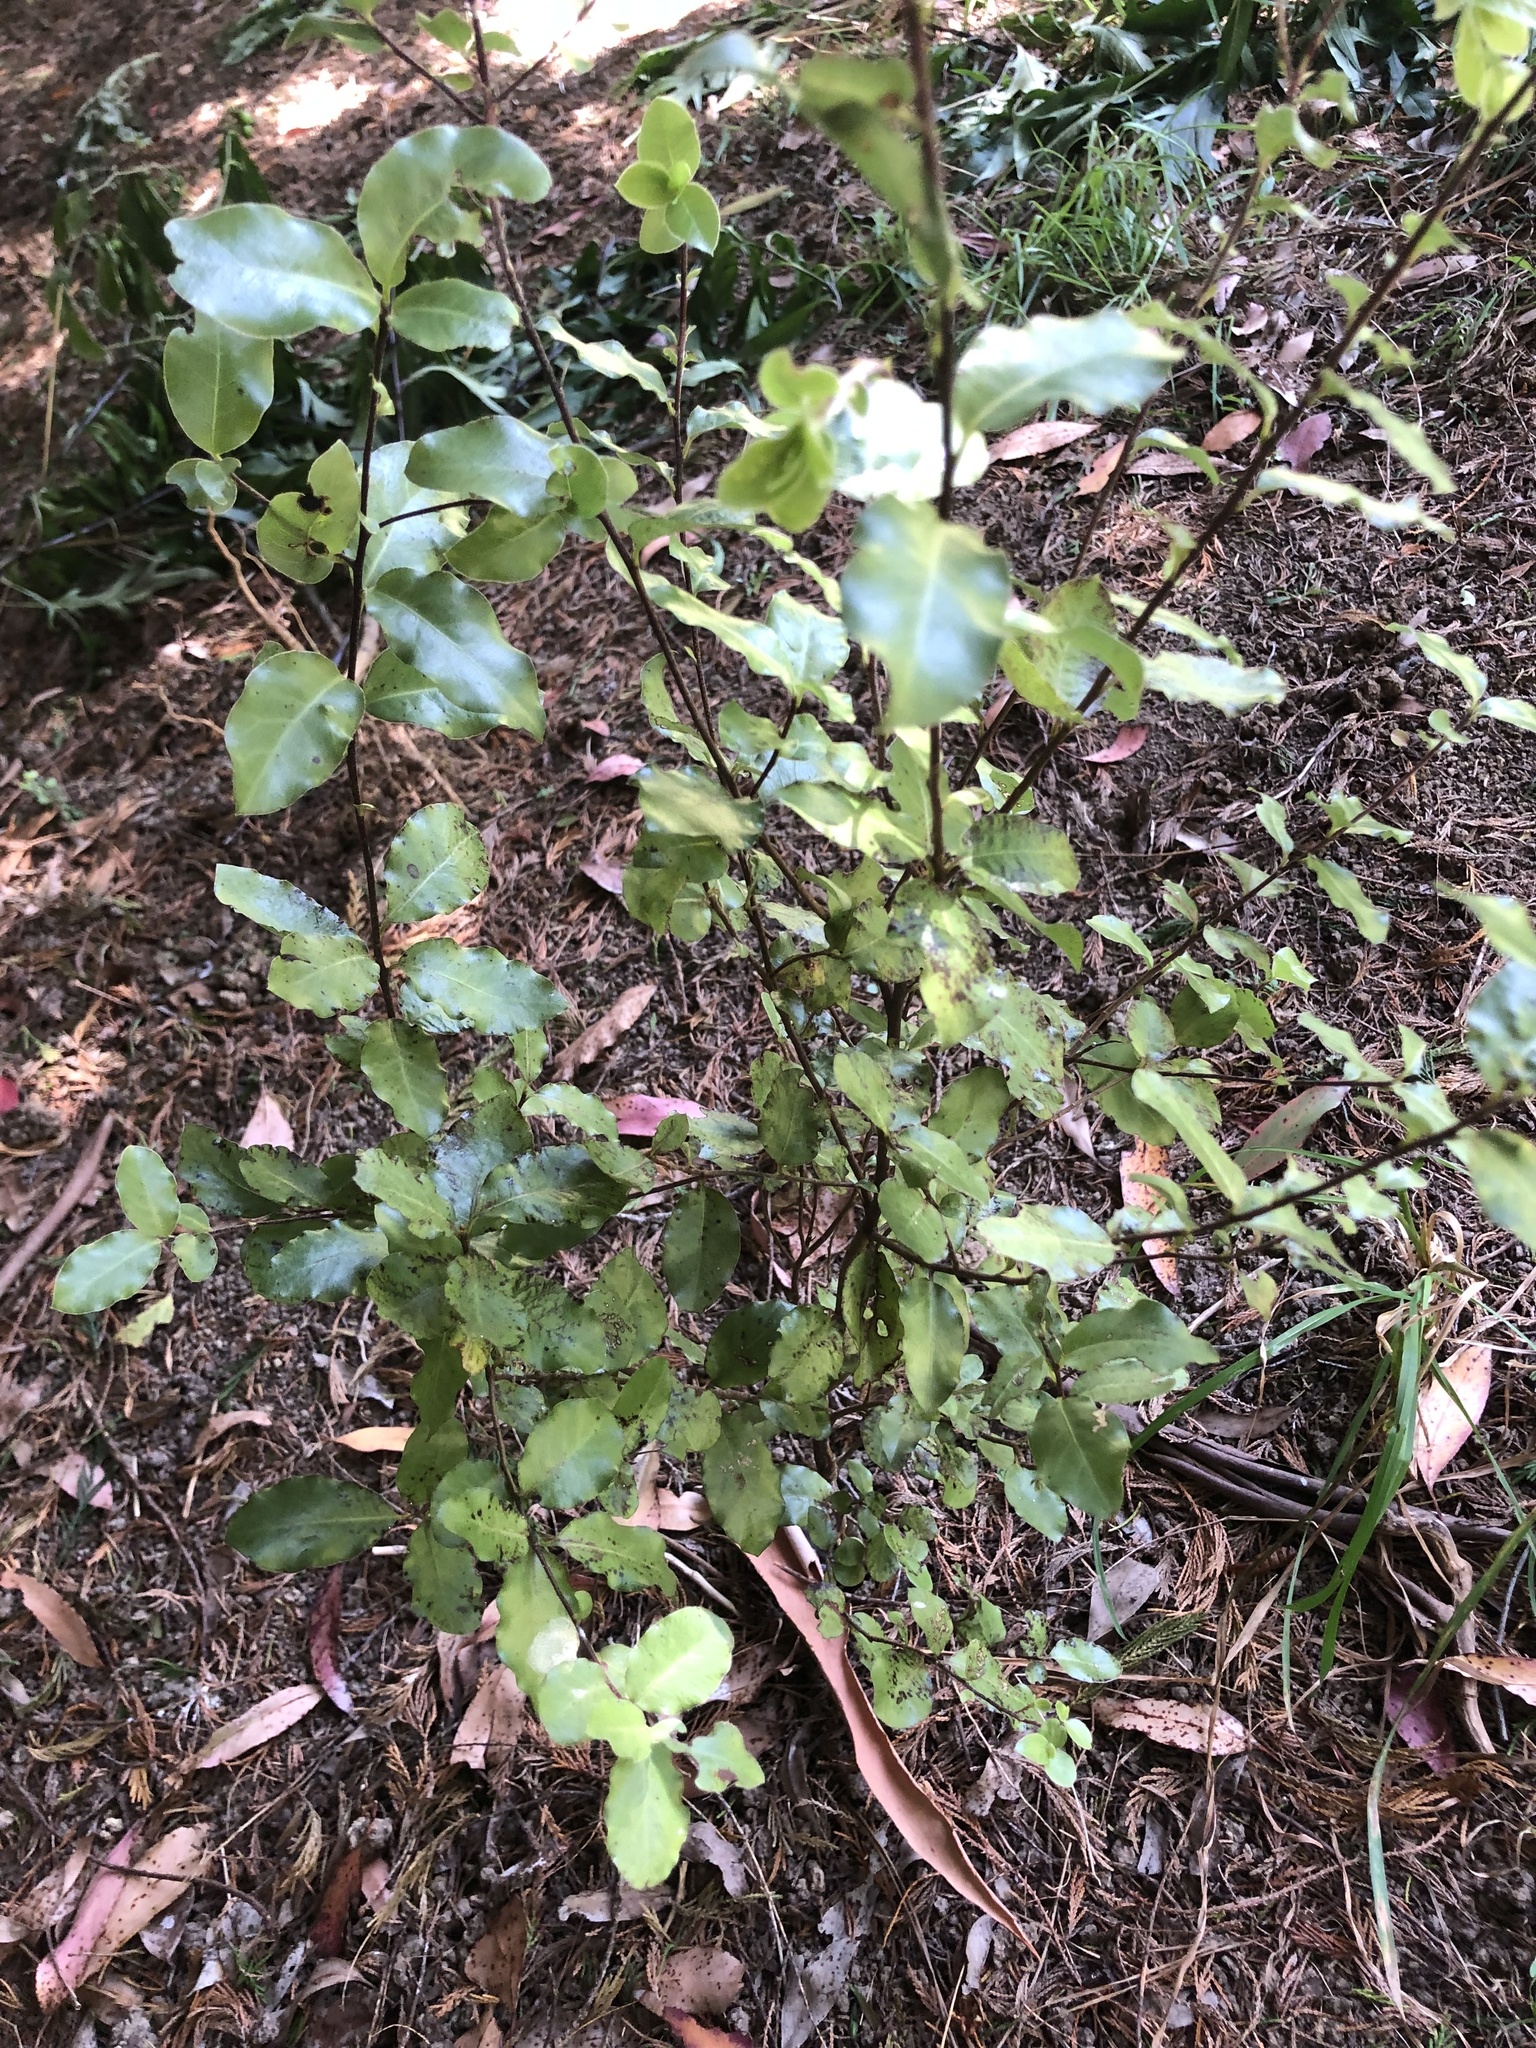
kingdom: Plantae
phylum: Tracheophyta
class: Magnoliopsida
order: Apiales
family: Pittosporaceae
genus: Pittosporum
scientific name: Pittosporum tenuifolium
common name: Kohuhu
